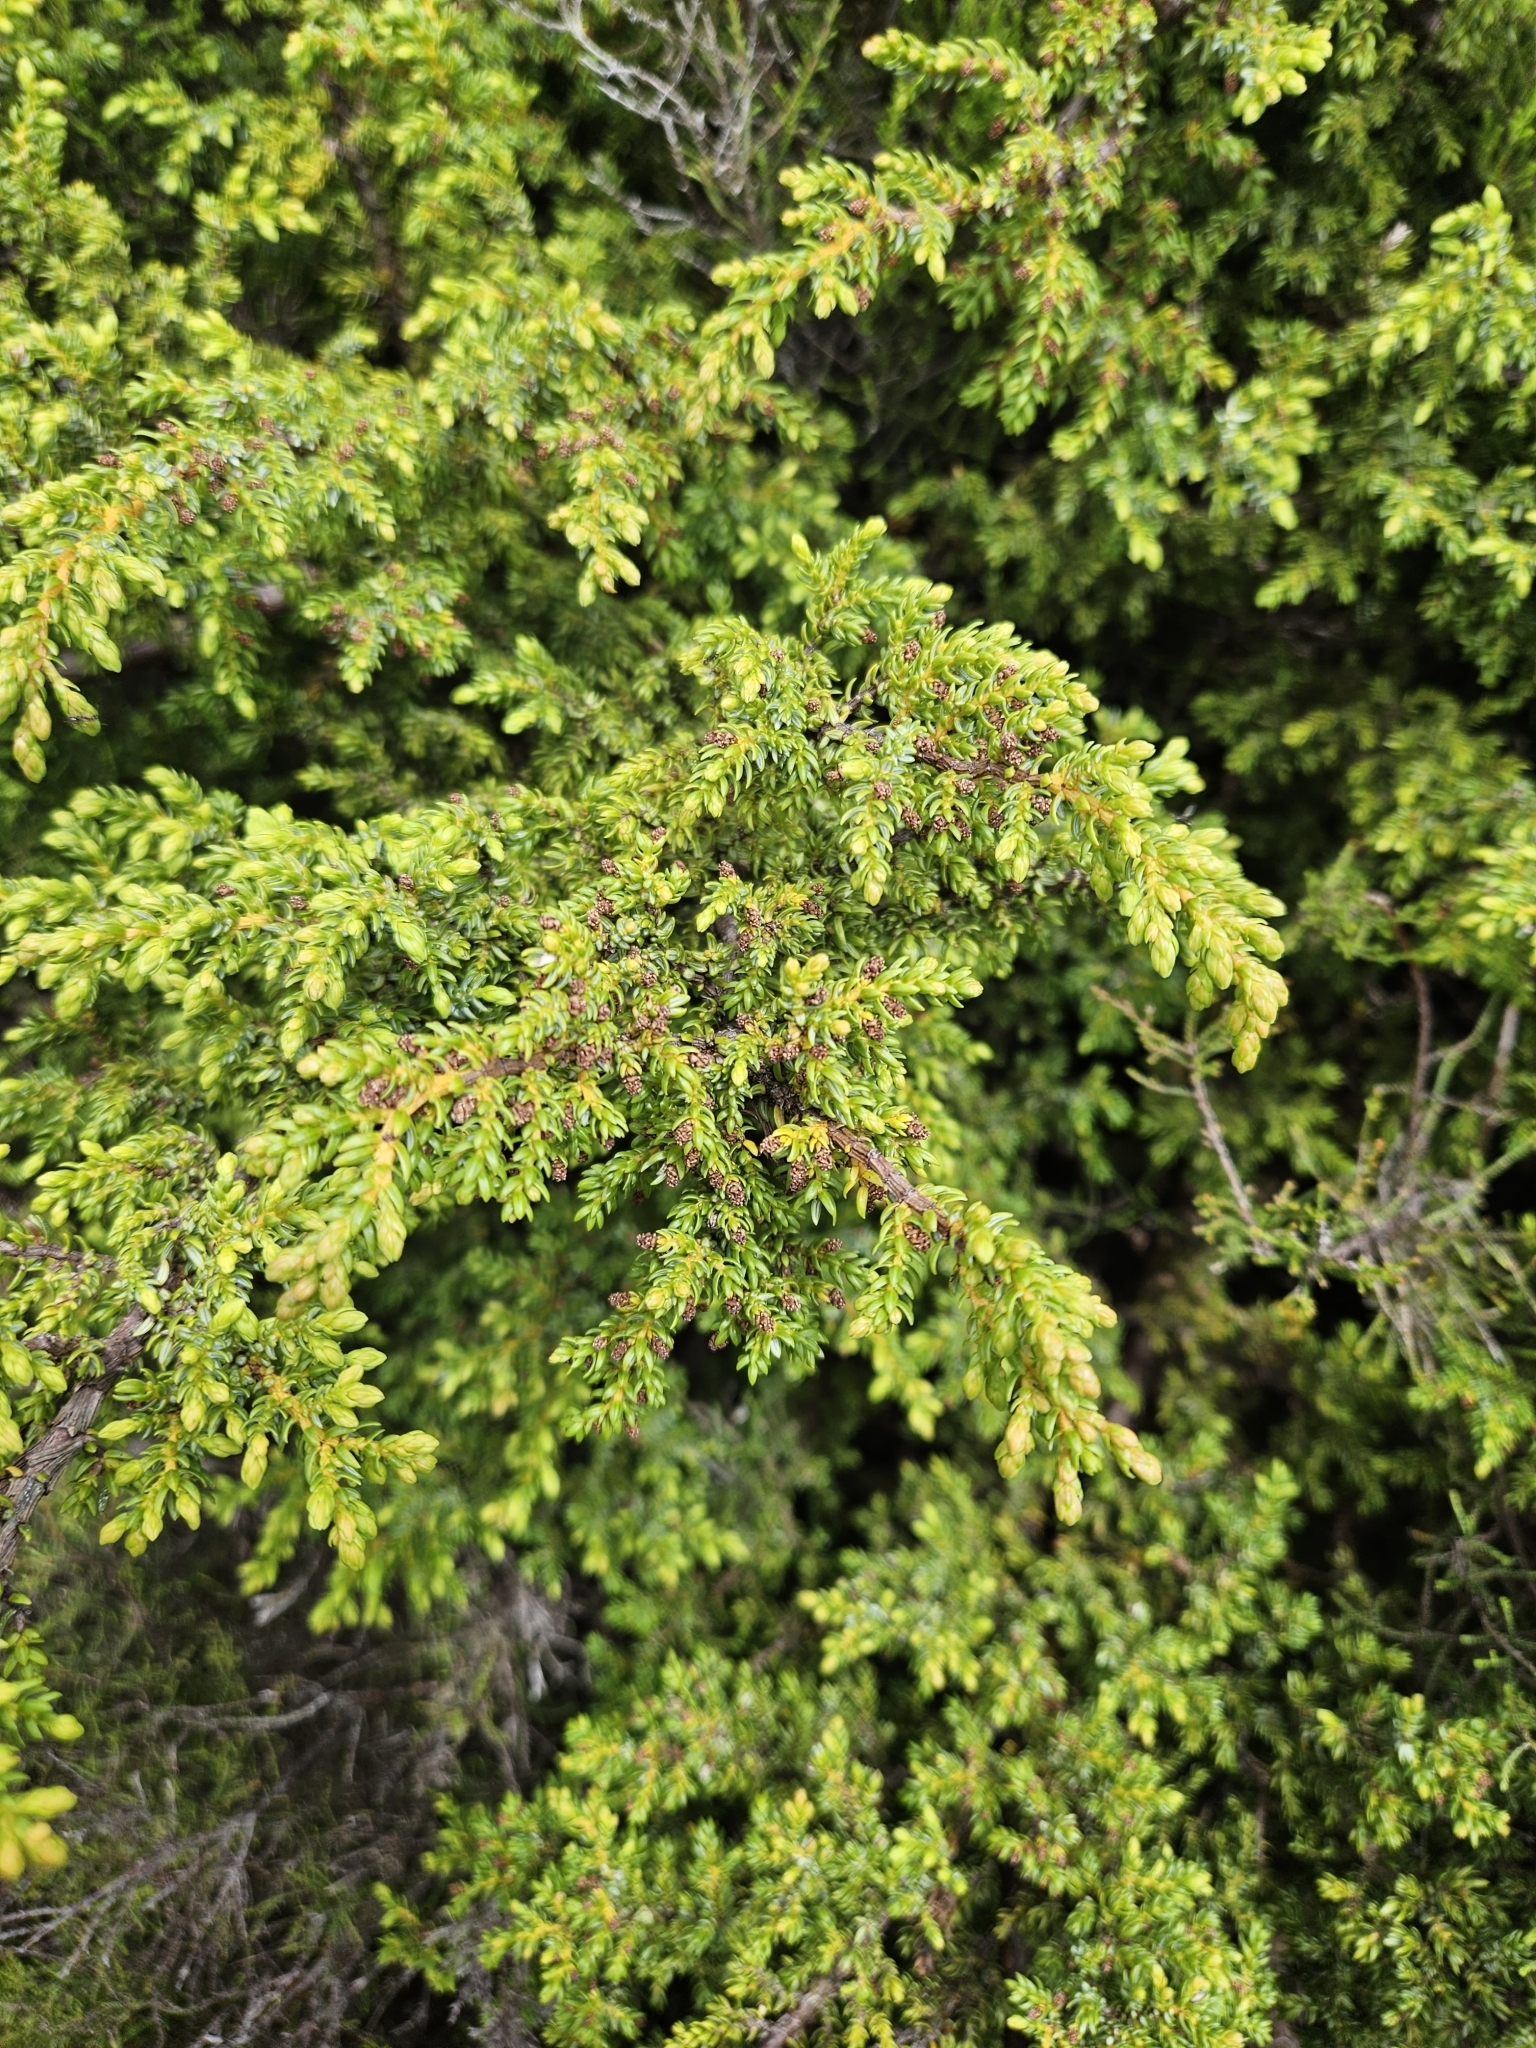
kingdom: Plantae
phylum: Tracheophyta
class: Pinopsida
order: Pinales
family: Cupressaceae
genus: Juniperus
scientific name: Juniperus brevifolia
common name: Azores juniper
